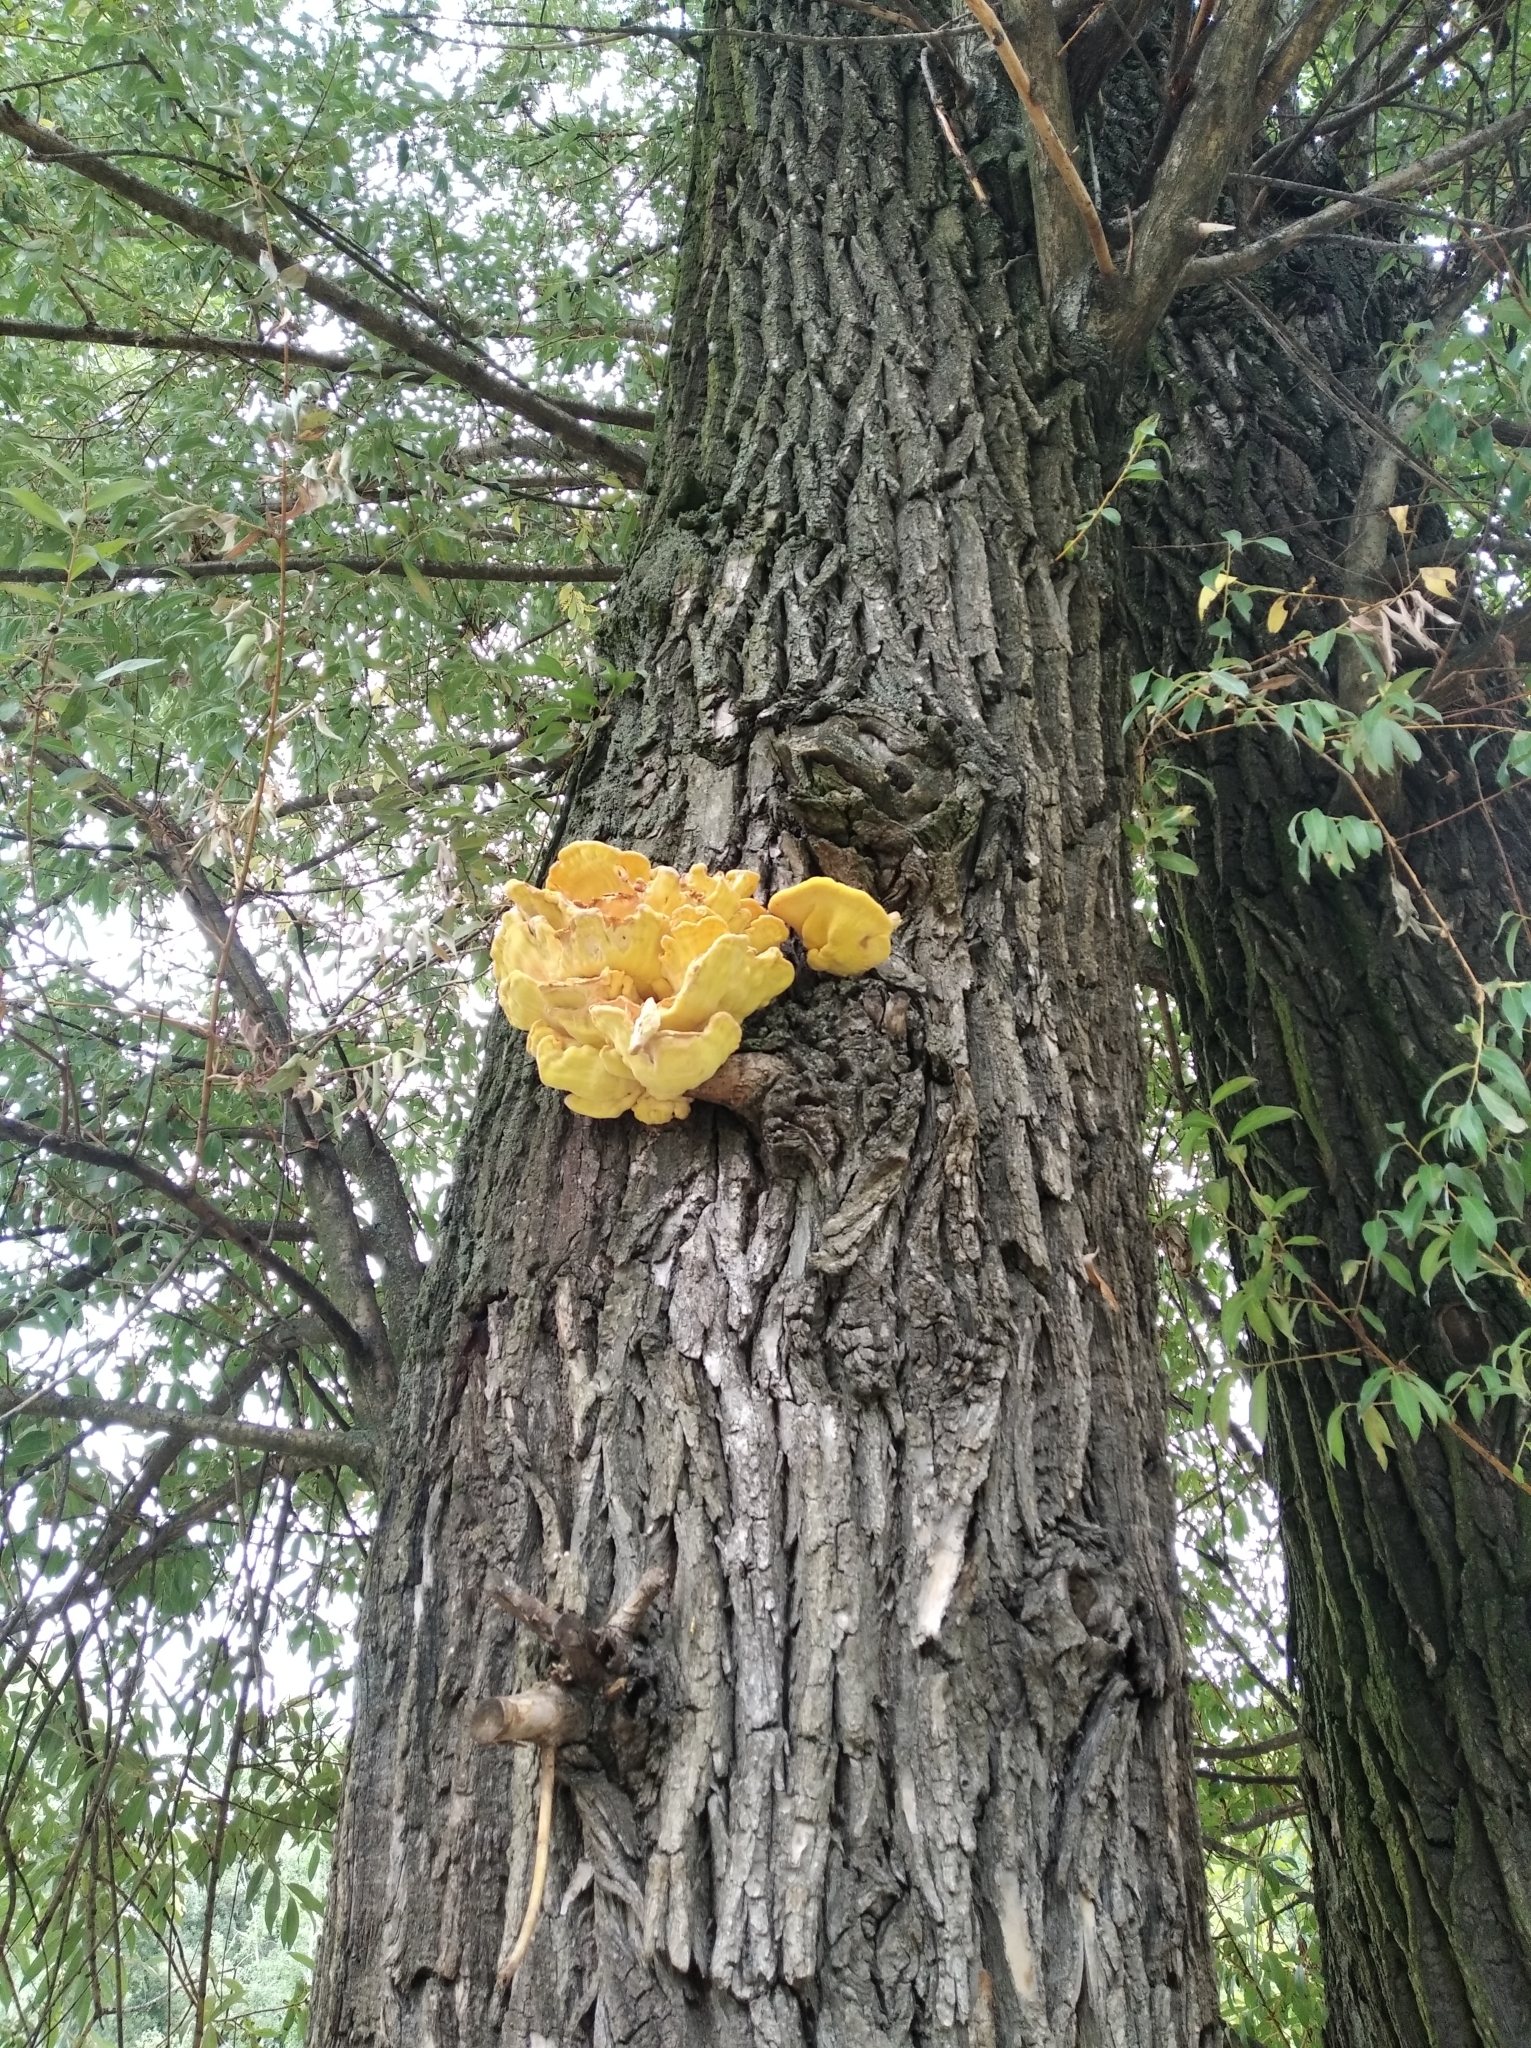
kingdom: Fungi
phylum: Basidiomycota
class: Agaricomycetes
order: Polyporales
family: Laetiporaceae
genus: Laetiporus
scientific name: Laetiporus sulphureus
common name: Chicken of the woods
